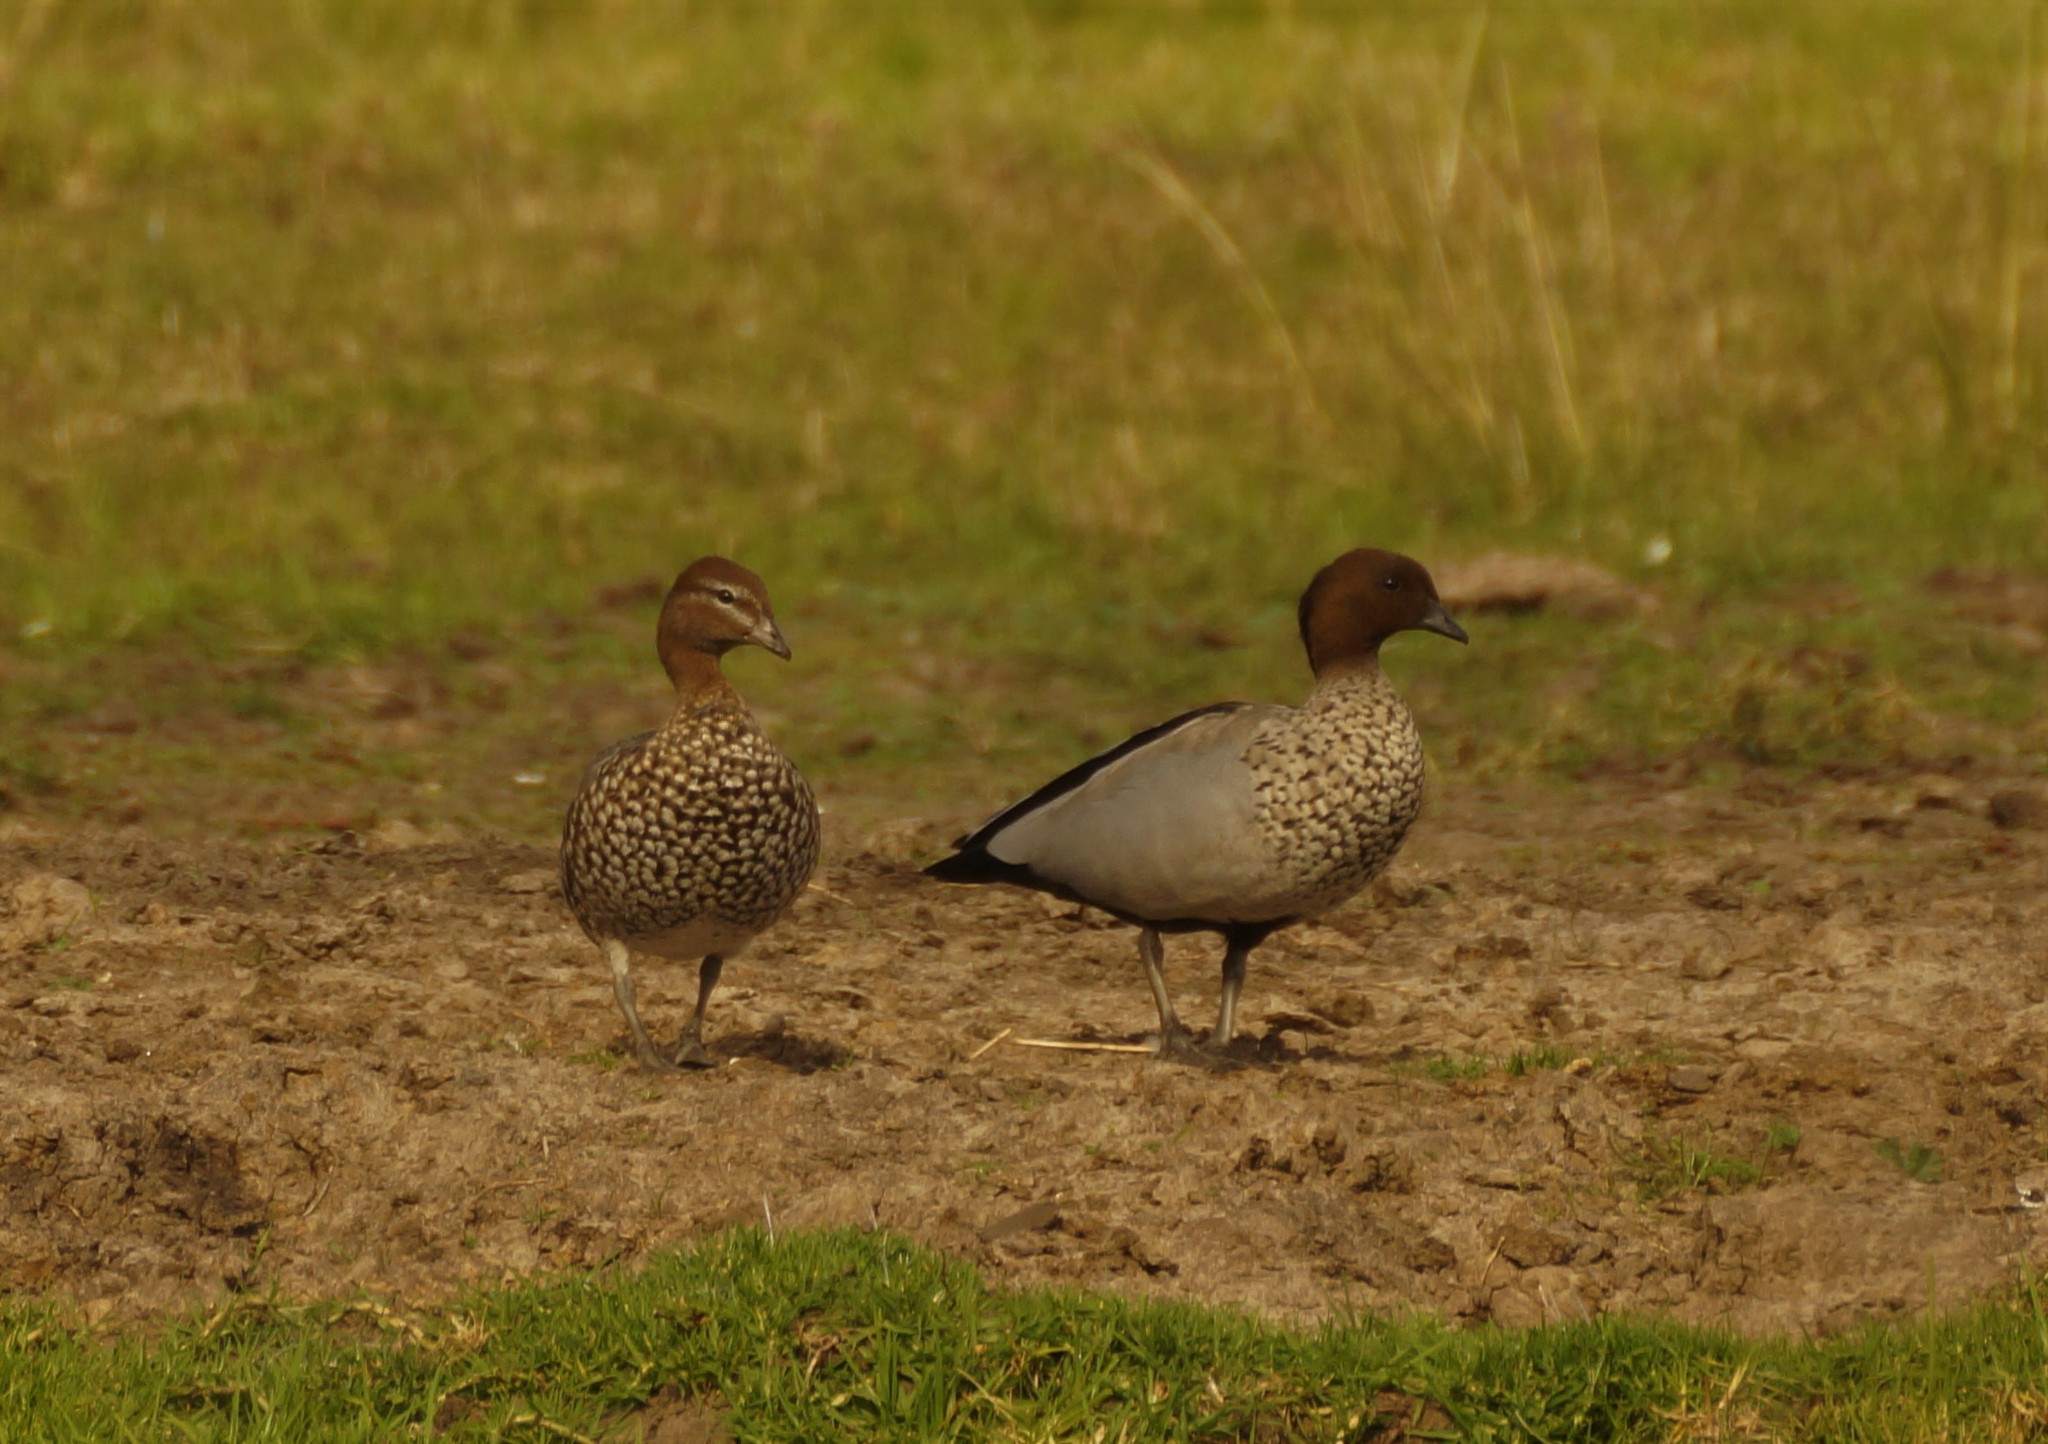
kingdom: Animalia
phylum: Chordata
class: Aves
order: Anseriformes
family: Anatidae
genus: Chenonetta
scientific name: Chenonetta jubata
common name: Maned duck
